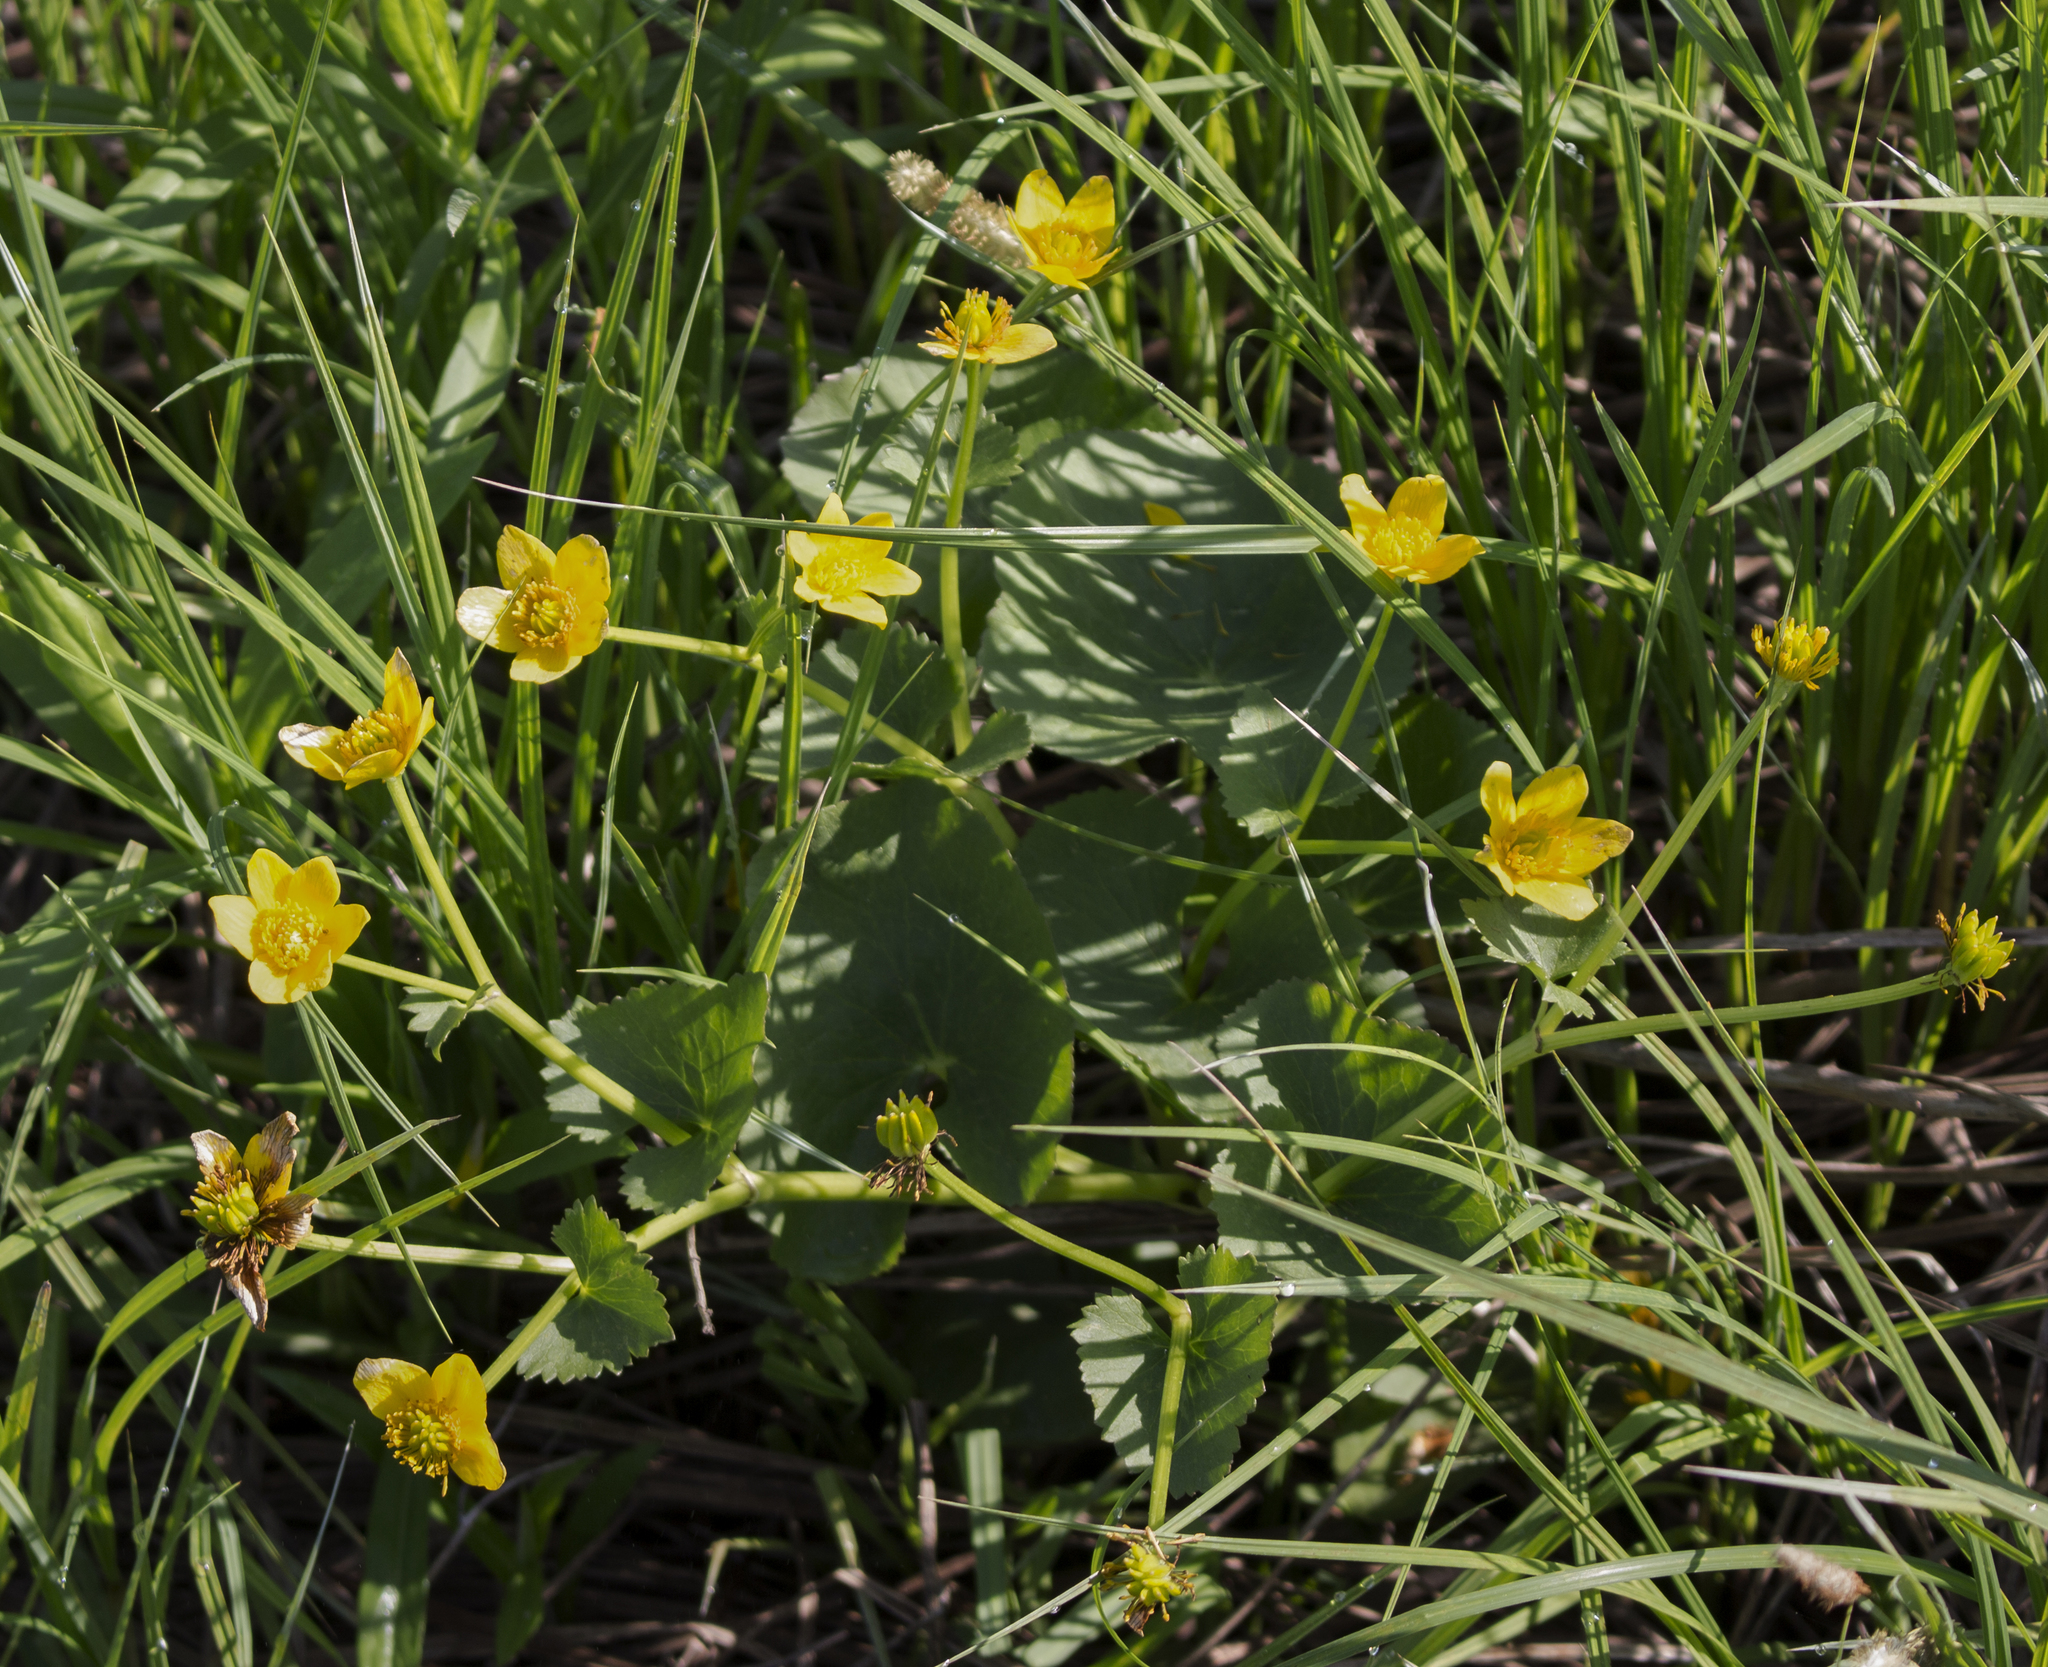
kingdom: Plantae
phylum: Tracheophyta
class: Magnoliopsida
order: Ranunculales
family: Ranunculaceae
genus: Caltha
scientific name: Caltha palustris
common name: Marsh marigold
